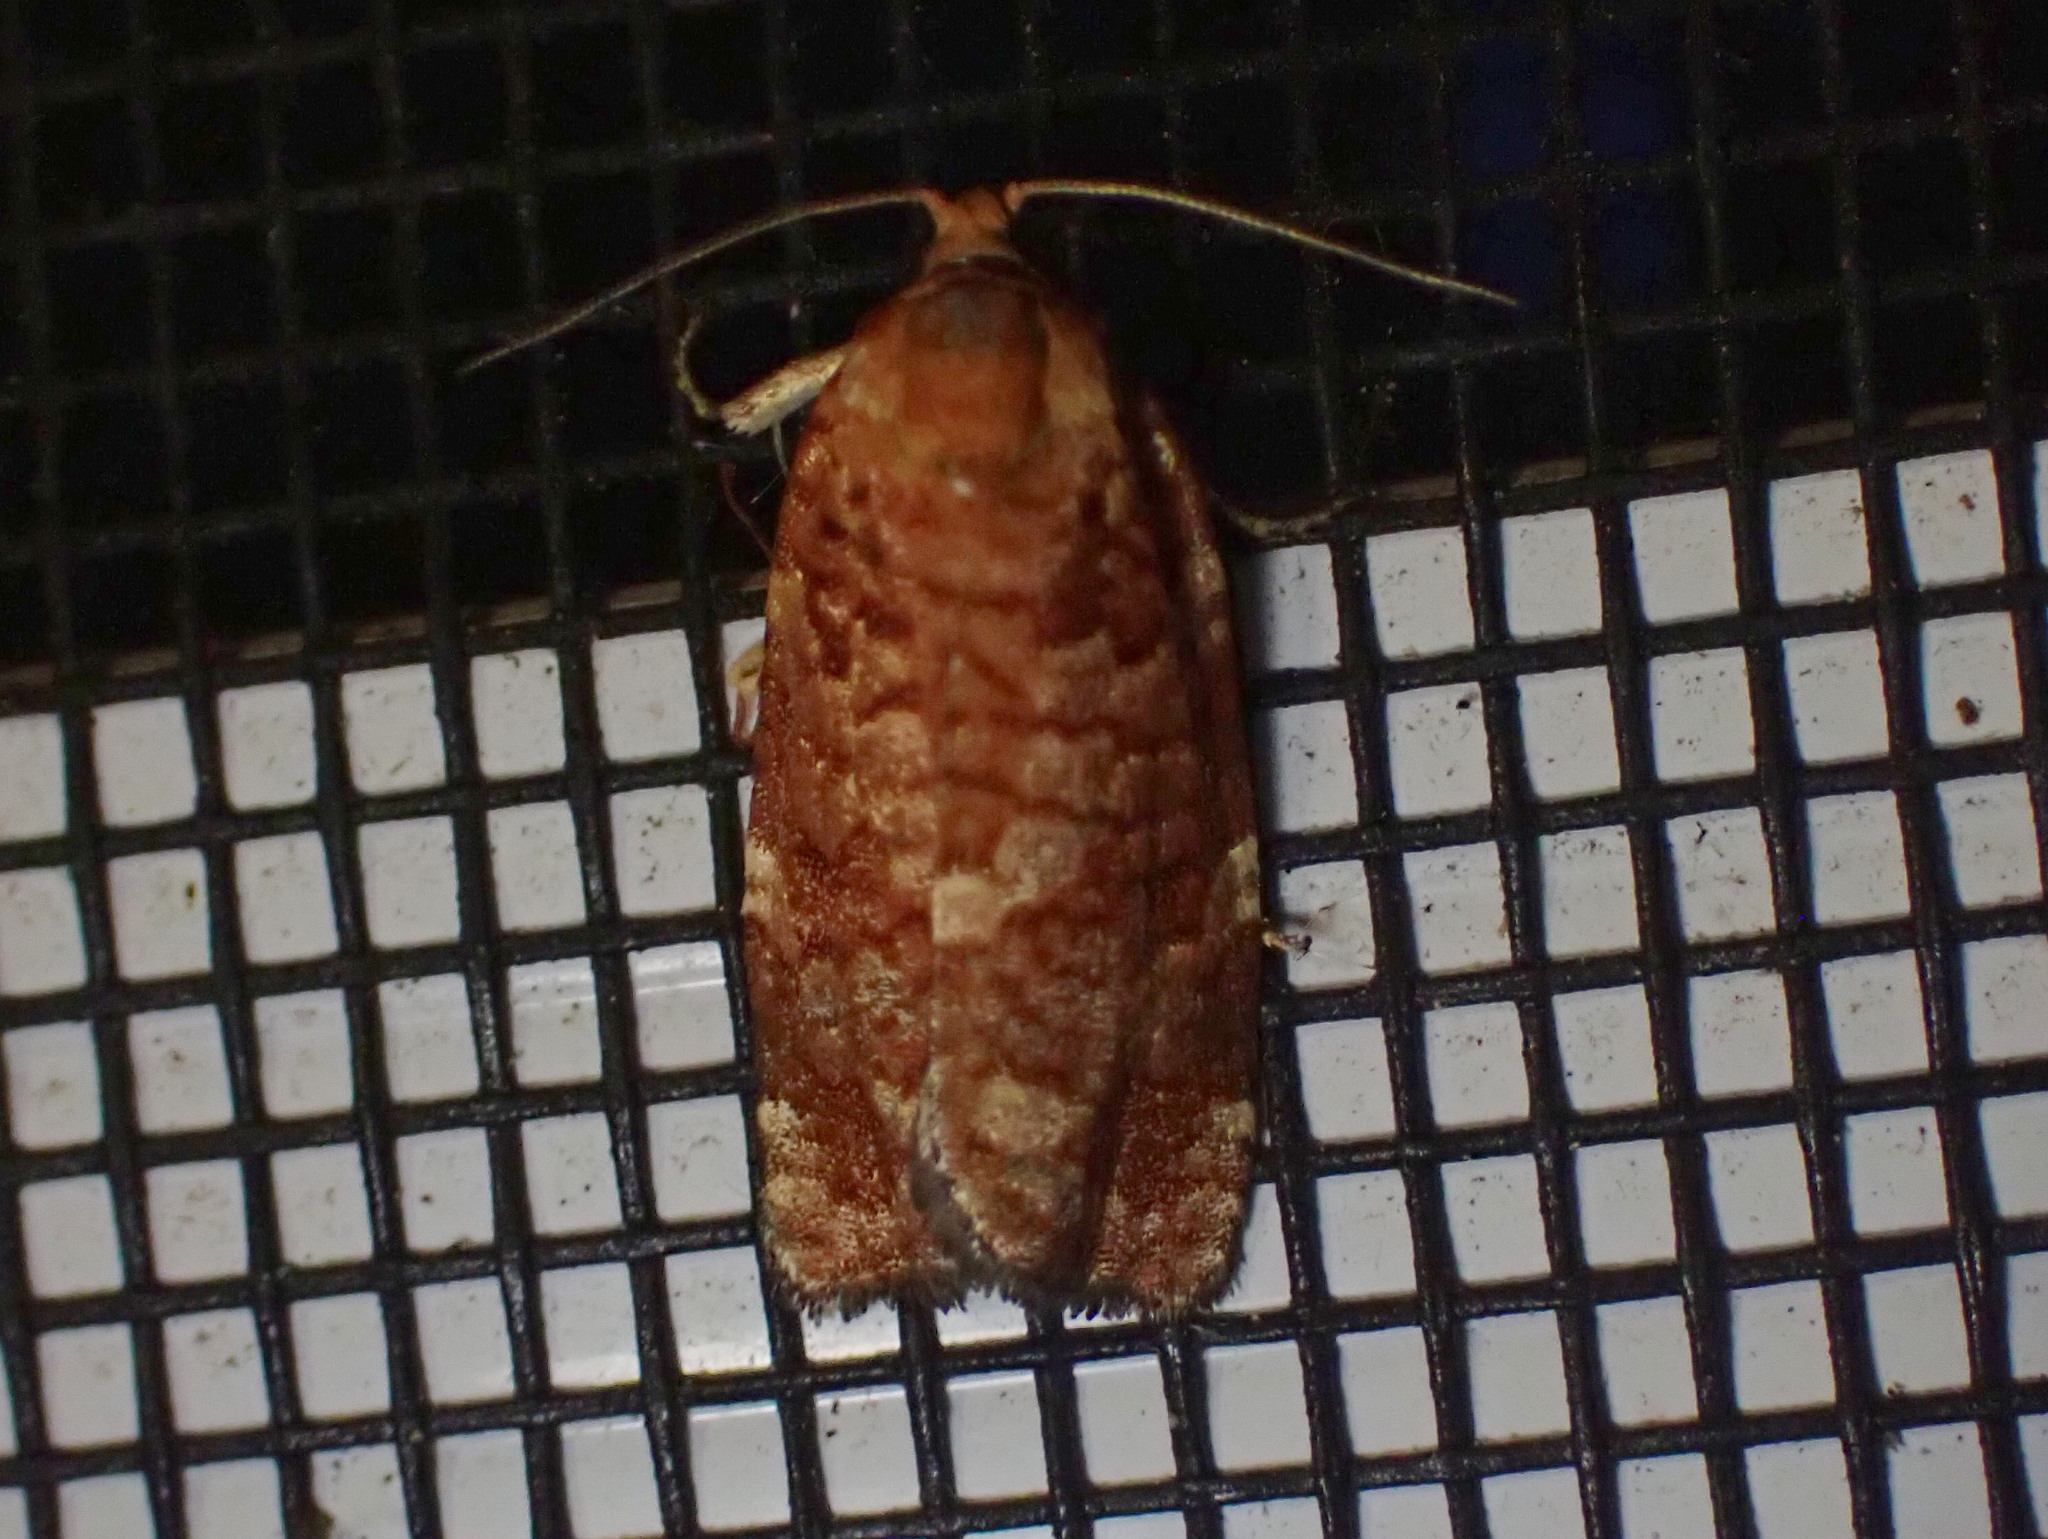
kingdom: Animalia
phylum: Arthropoda
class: Insecta
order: Lepidoptera
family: Tortricidae
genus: Choristoneura
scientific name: Choristoneura pinus
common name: Jack pine budworm
